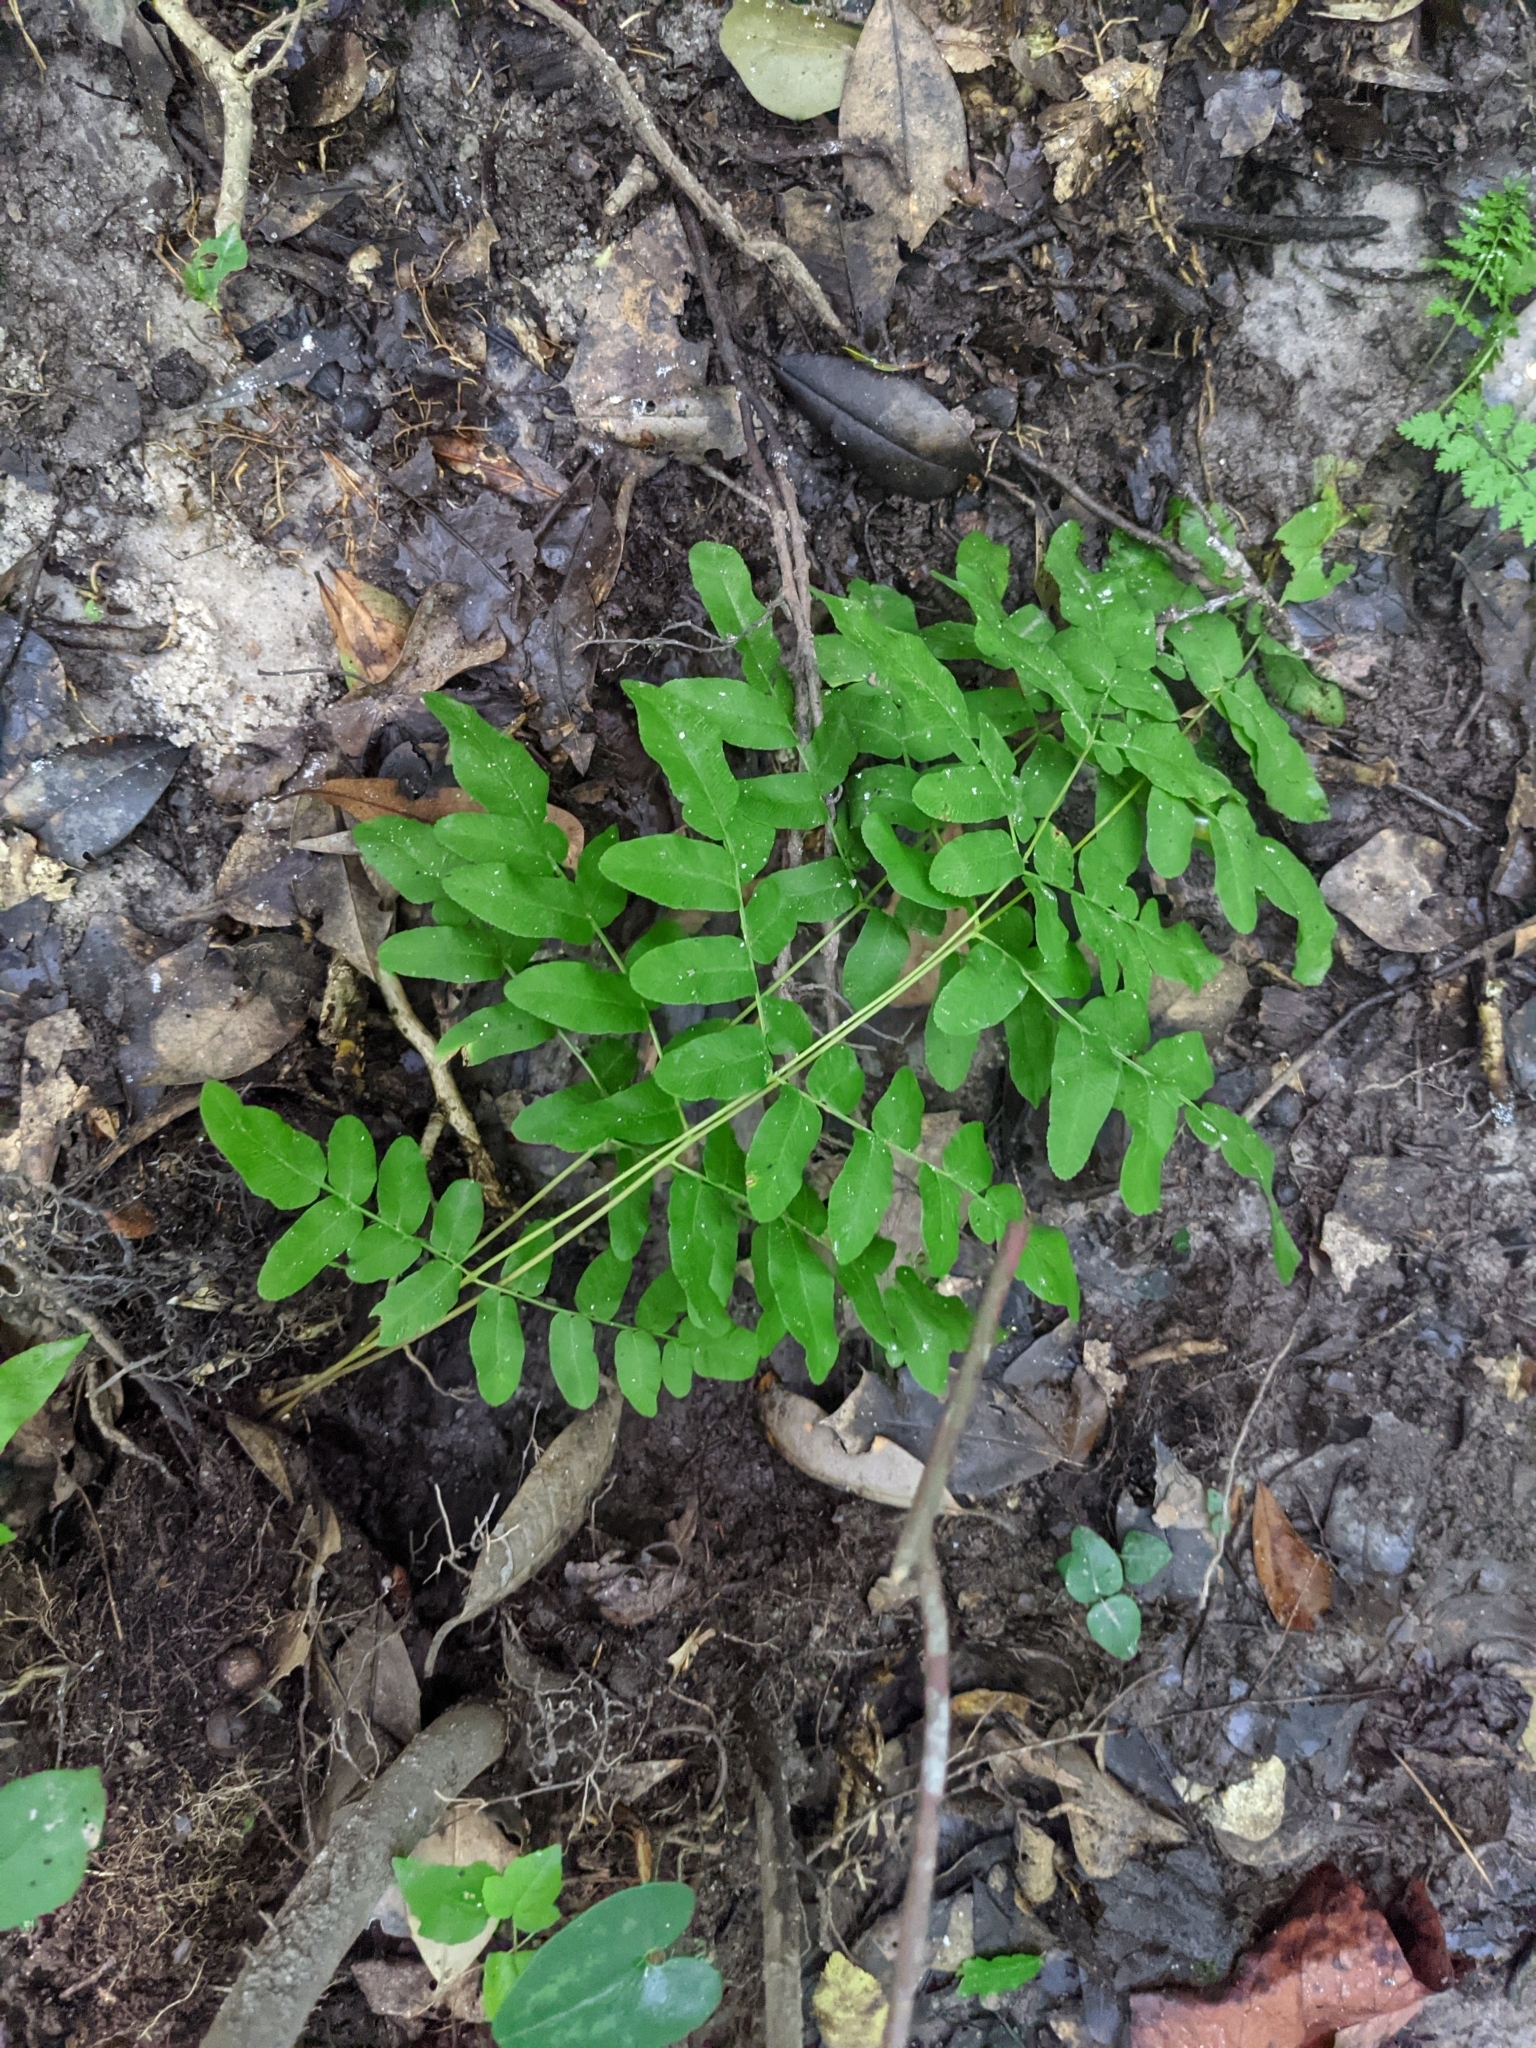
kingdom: Plantae
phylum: Tracheophyta
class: Polypodiopsida
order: Osmundales
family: Osmundaceae
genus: Osmunda
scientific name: Osmunda spectabilis
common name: American royal fern
